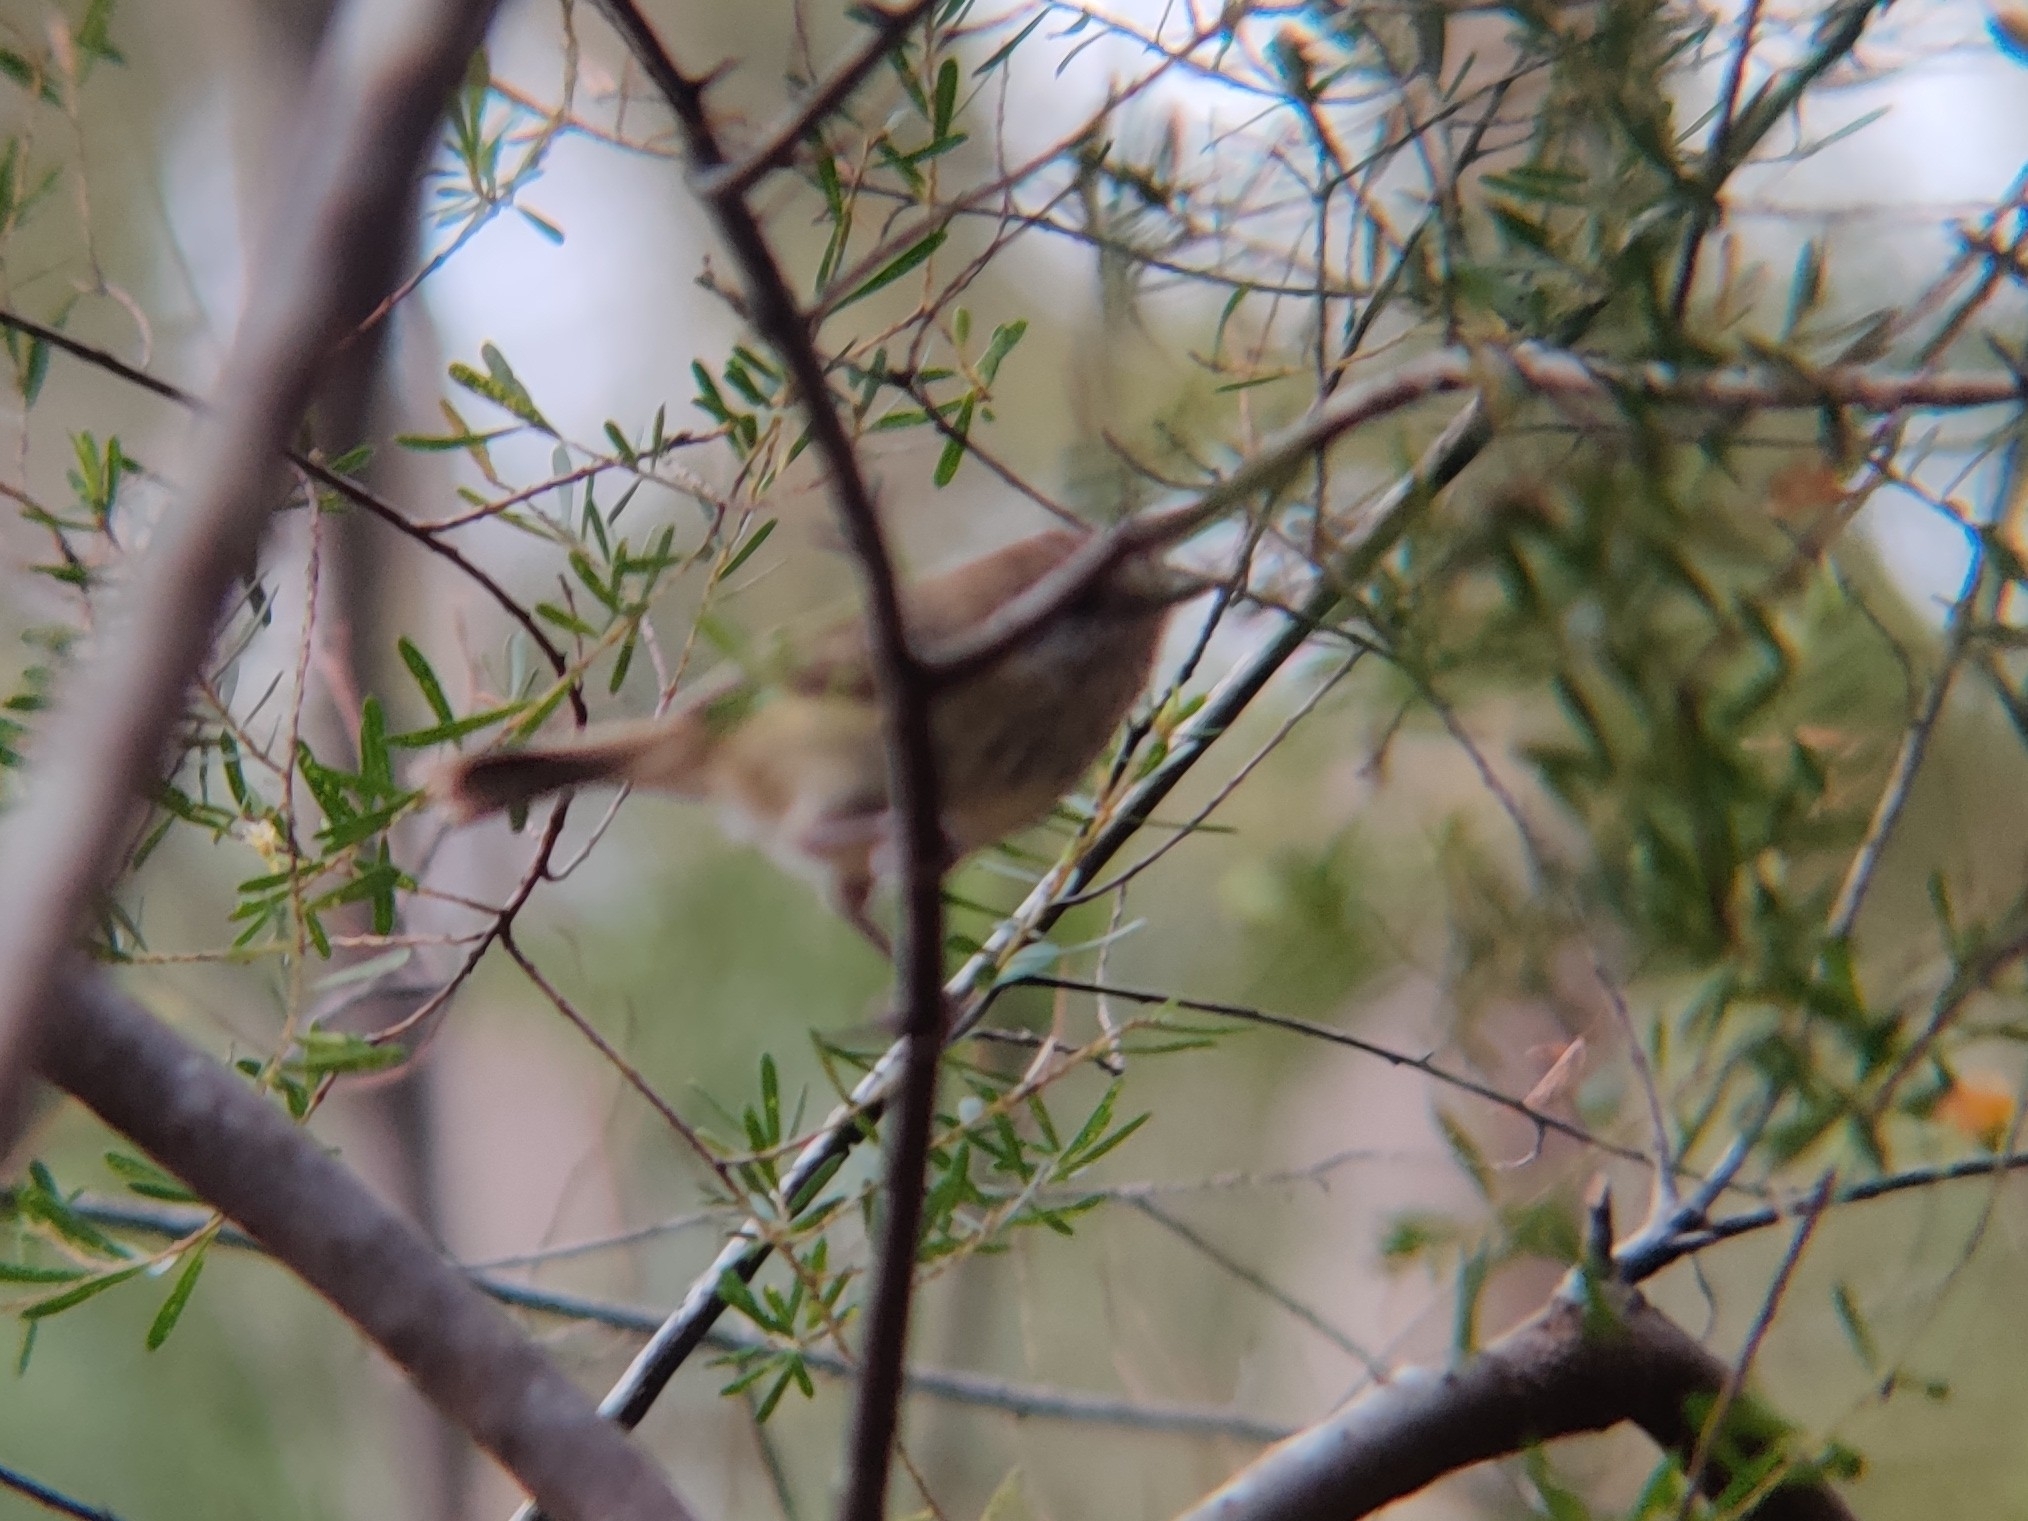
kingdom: Animalia
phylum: Chordata
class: Aves
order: Passeriformes
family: Acanthizidae
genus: Acanthiza
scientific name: Acanthiza lineata
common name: Striated thornbill
